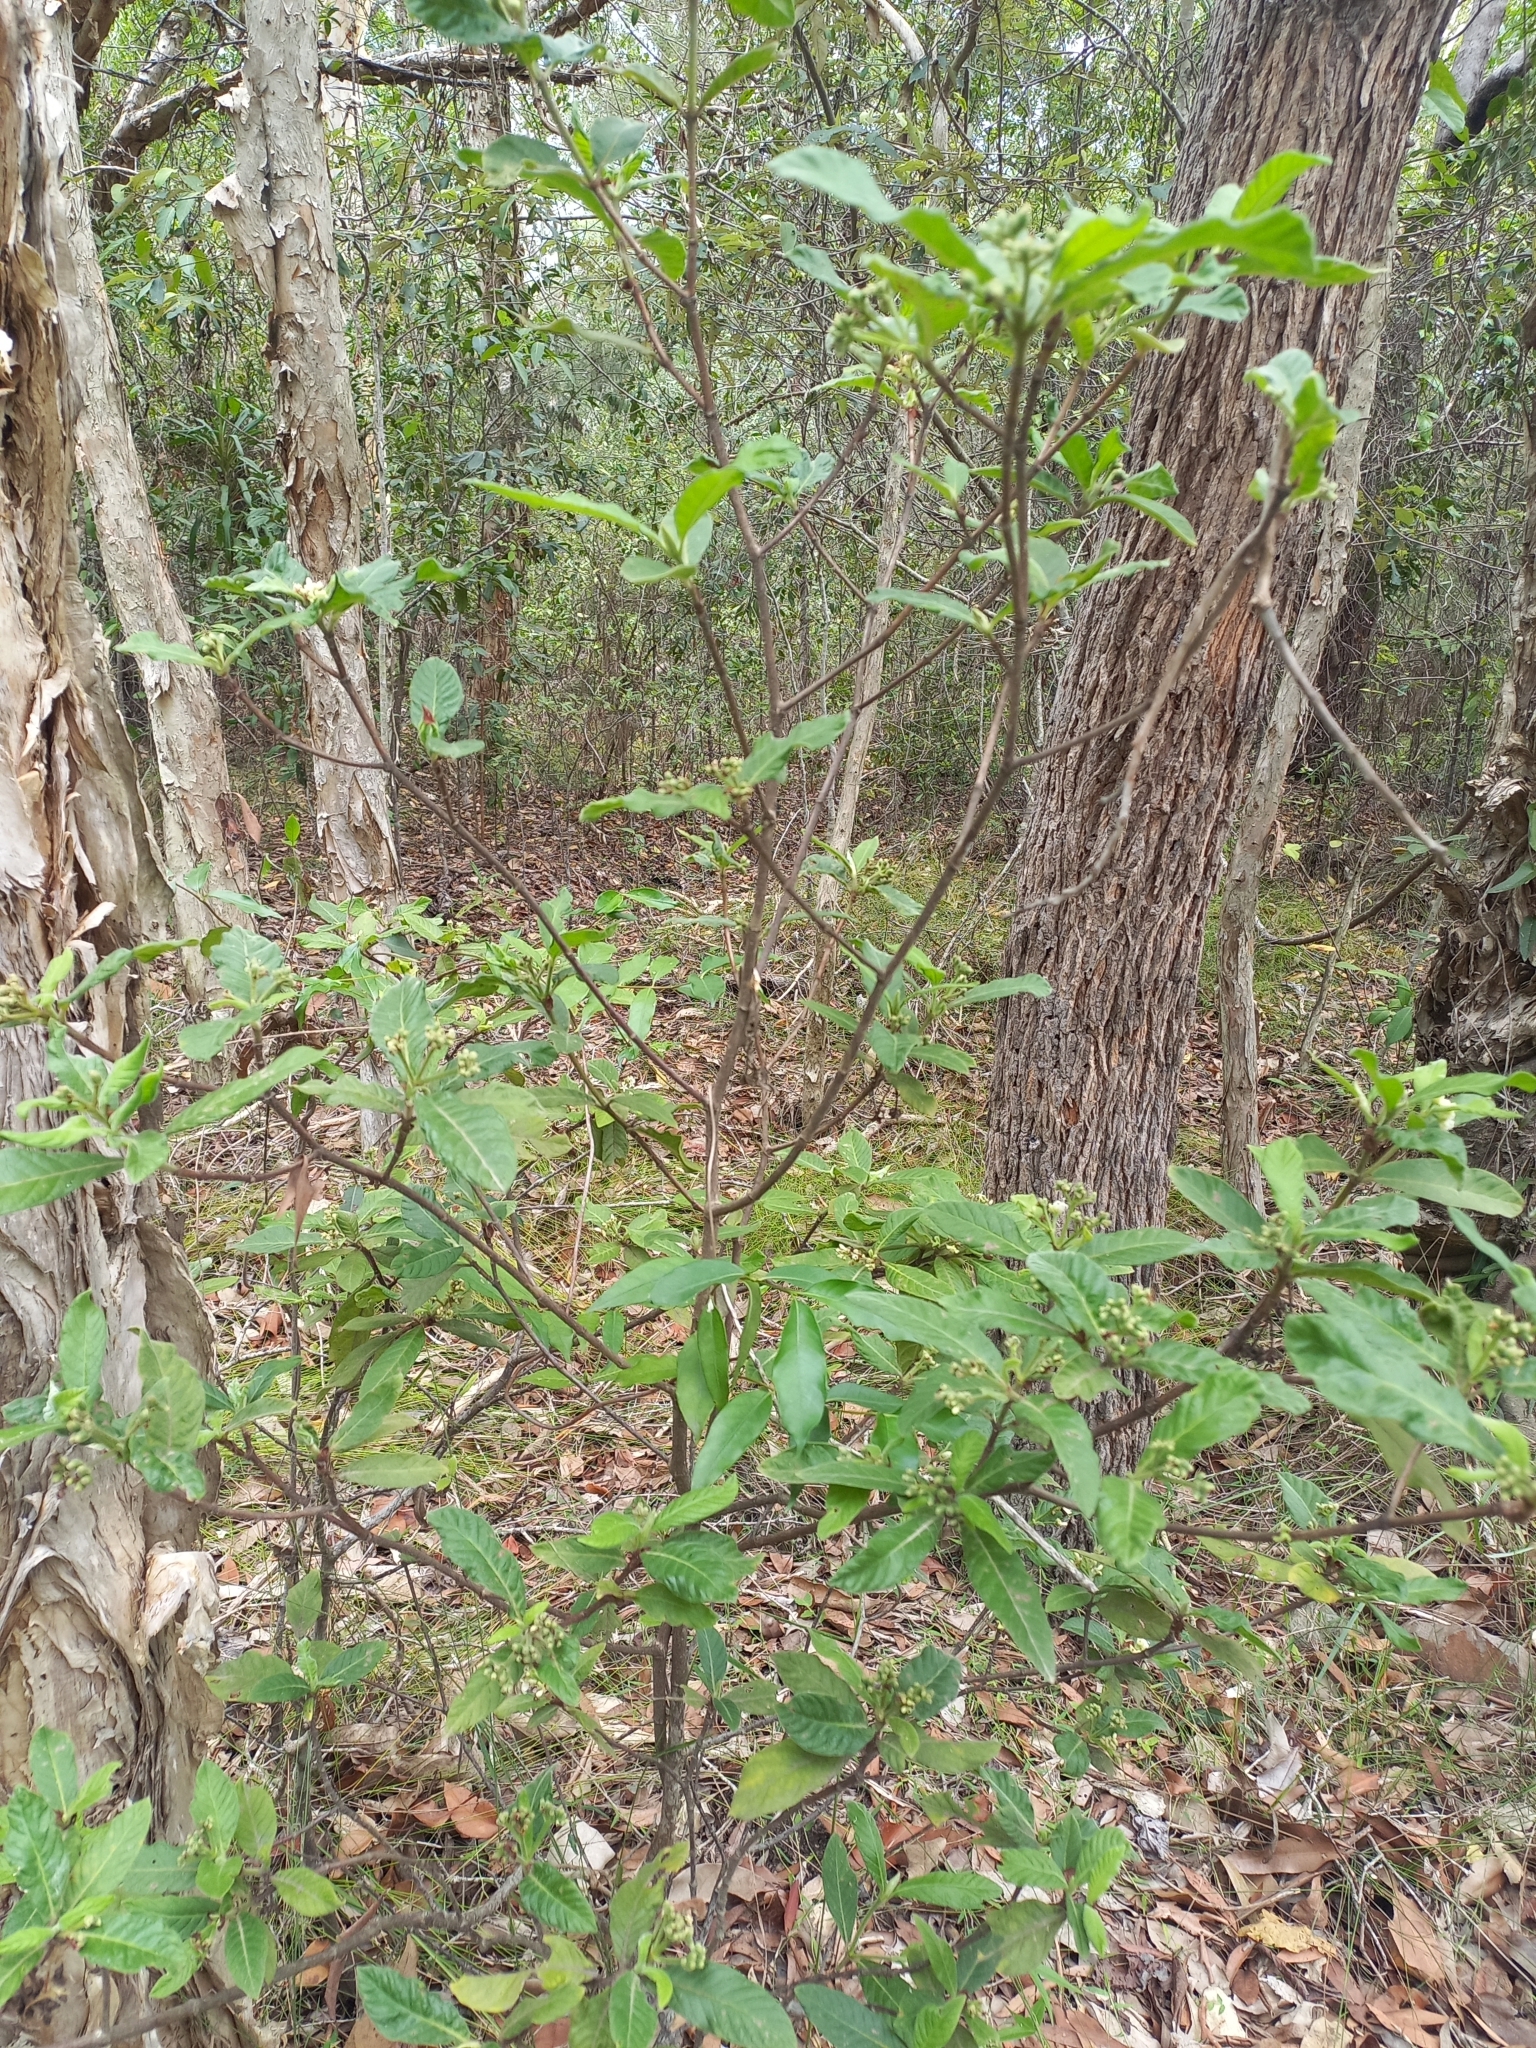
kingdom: Plantae
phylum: Tracheophyta
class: Magnoliopsida
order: Gentianales
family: Rubiaceae
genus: Psychotria
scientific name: Psychotria loniceroides
